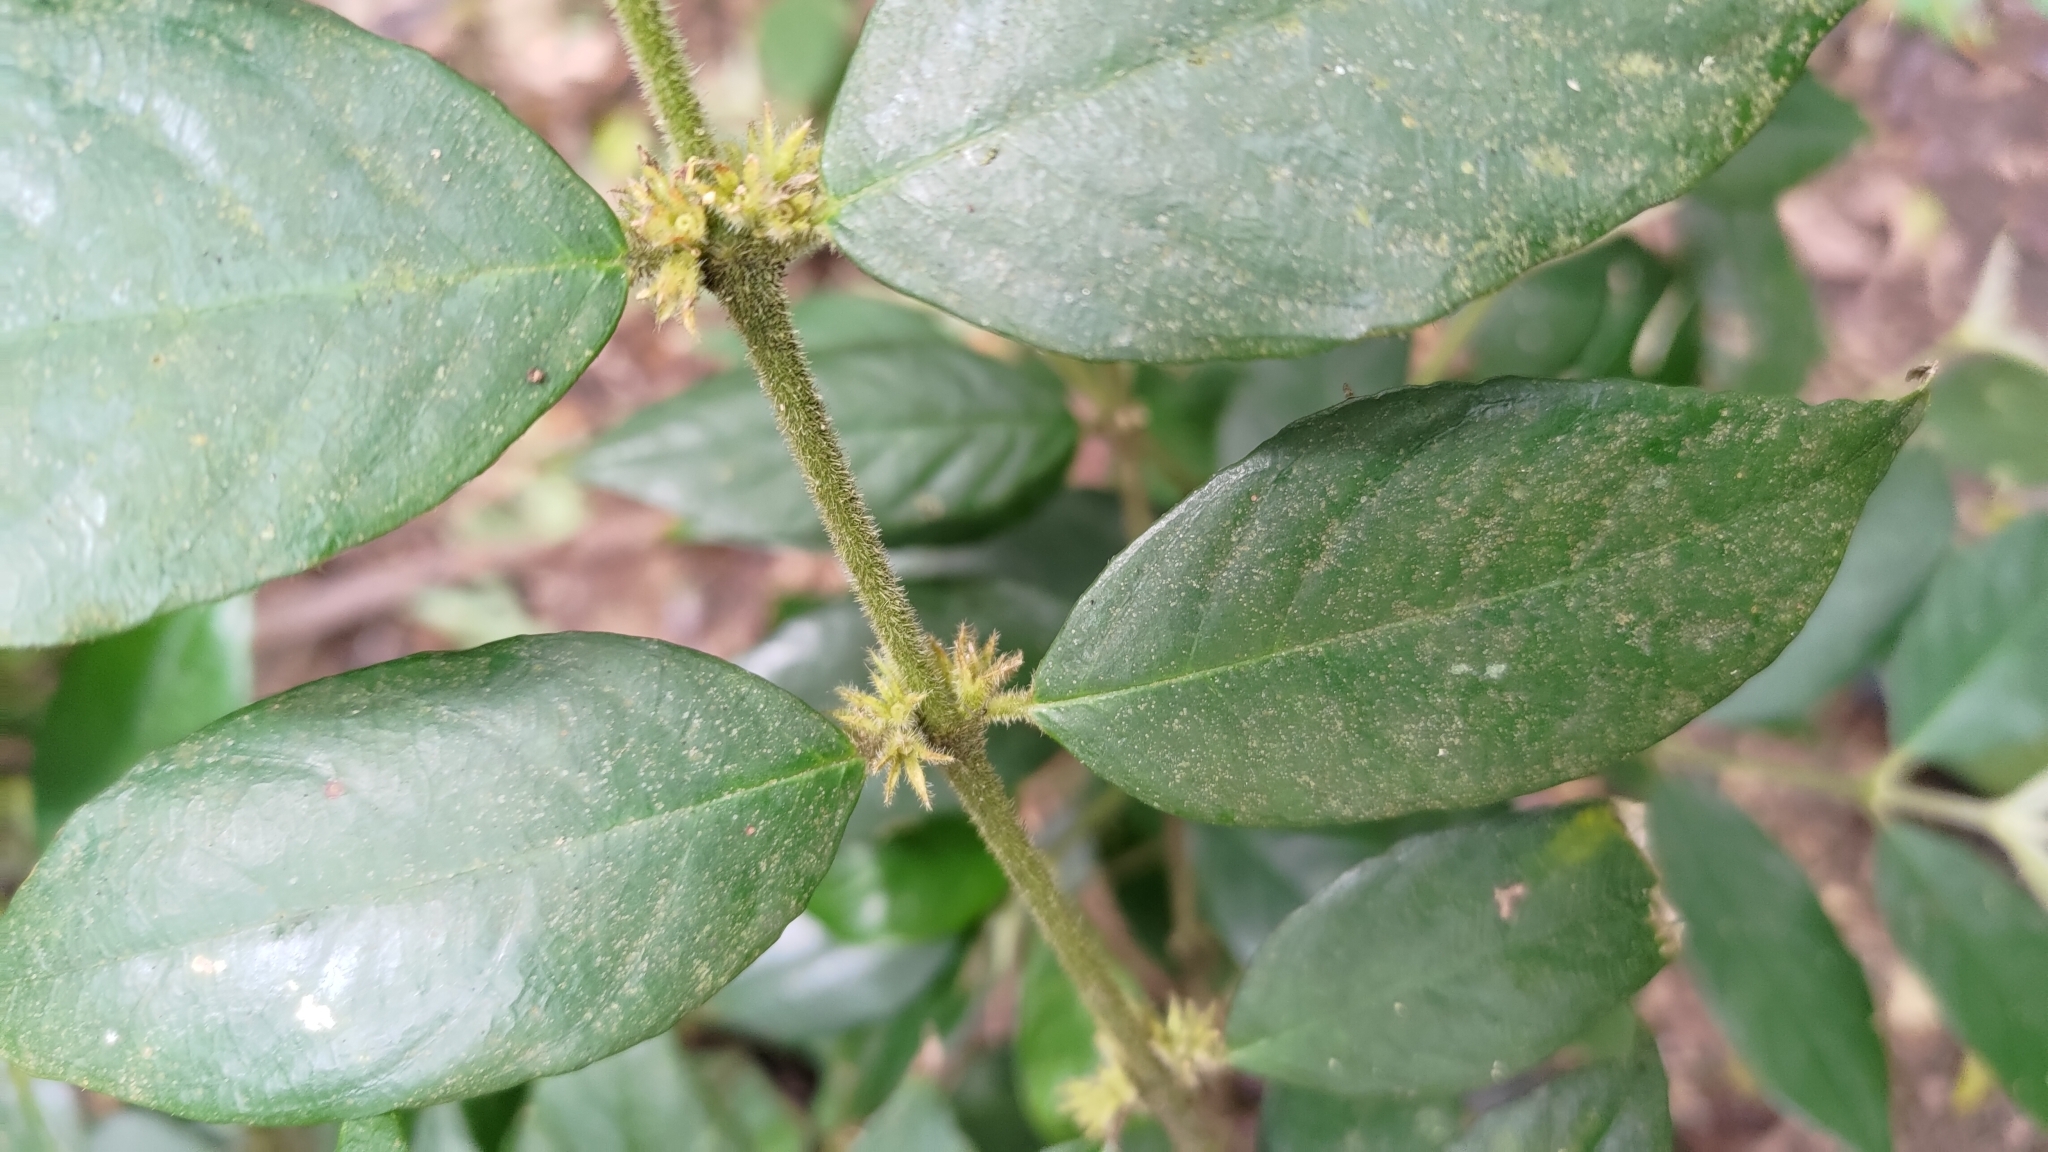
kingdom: Plantae
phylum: Tracheophyta
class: Magnoliopsida
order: Gentianales
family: Rubiaceae
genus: Lasianthus
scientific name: Lasianthus curtisii
